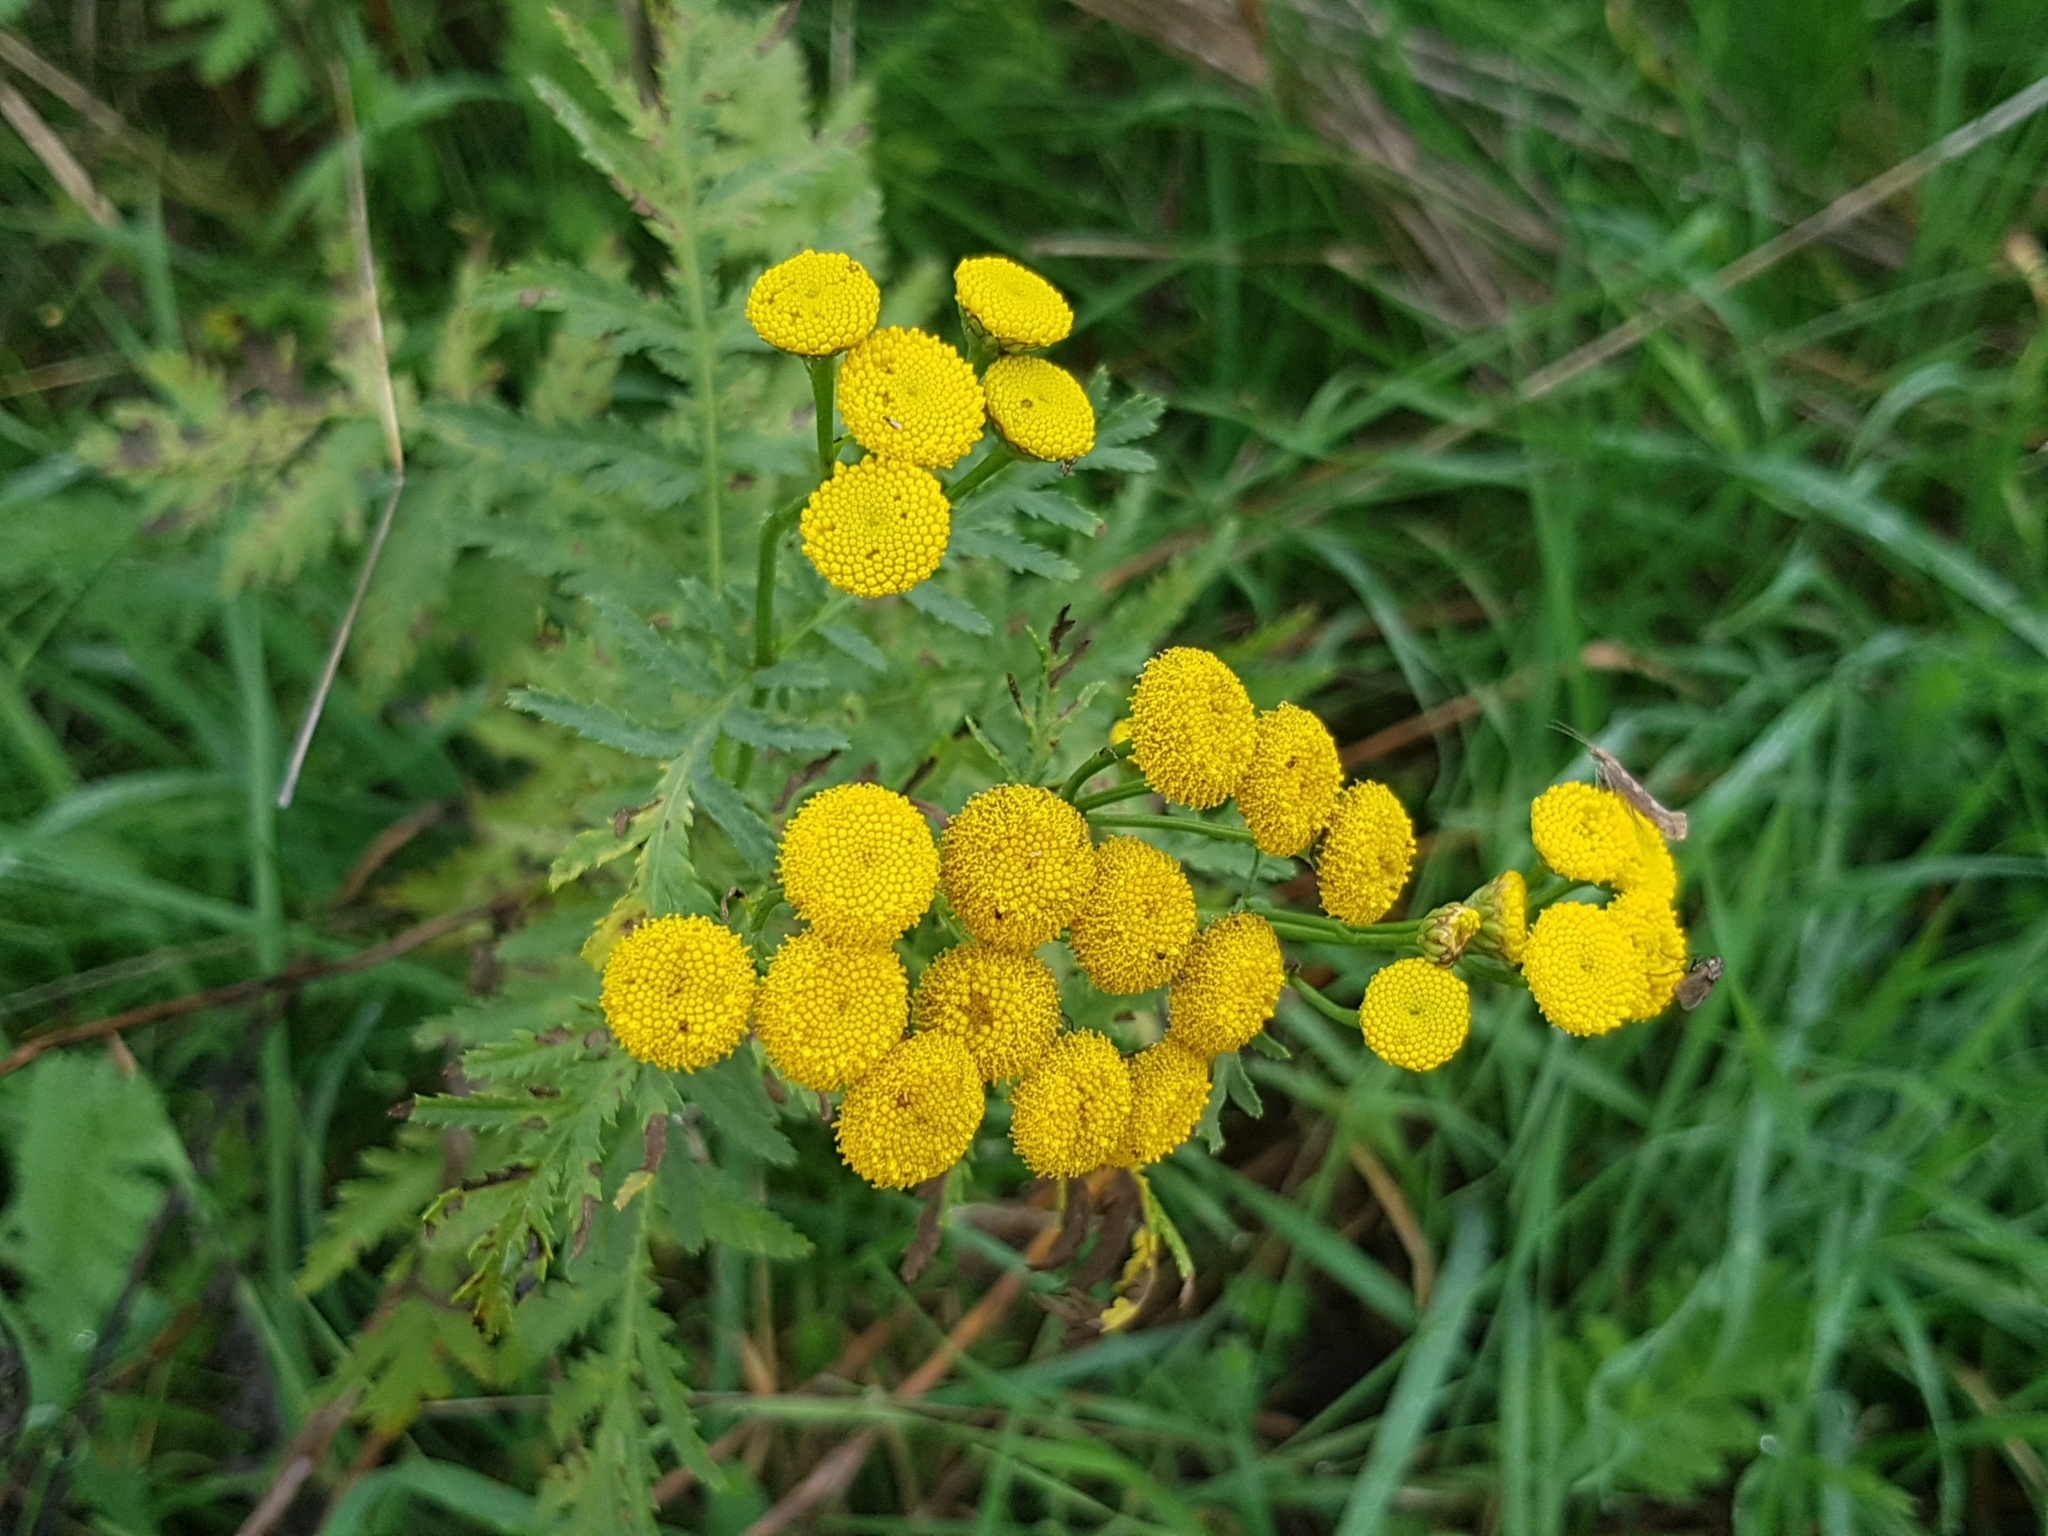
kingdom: Plantae
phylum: Tracheophyta
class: Magnoliopsida
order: Asterales
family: Asteraceae
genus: Tanacetum
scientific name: Tanacetum vulgare
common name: Common tansy
